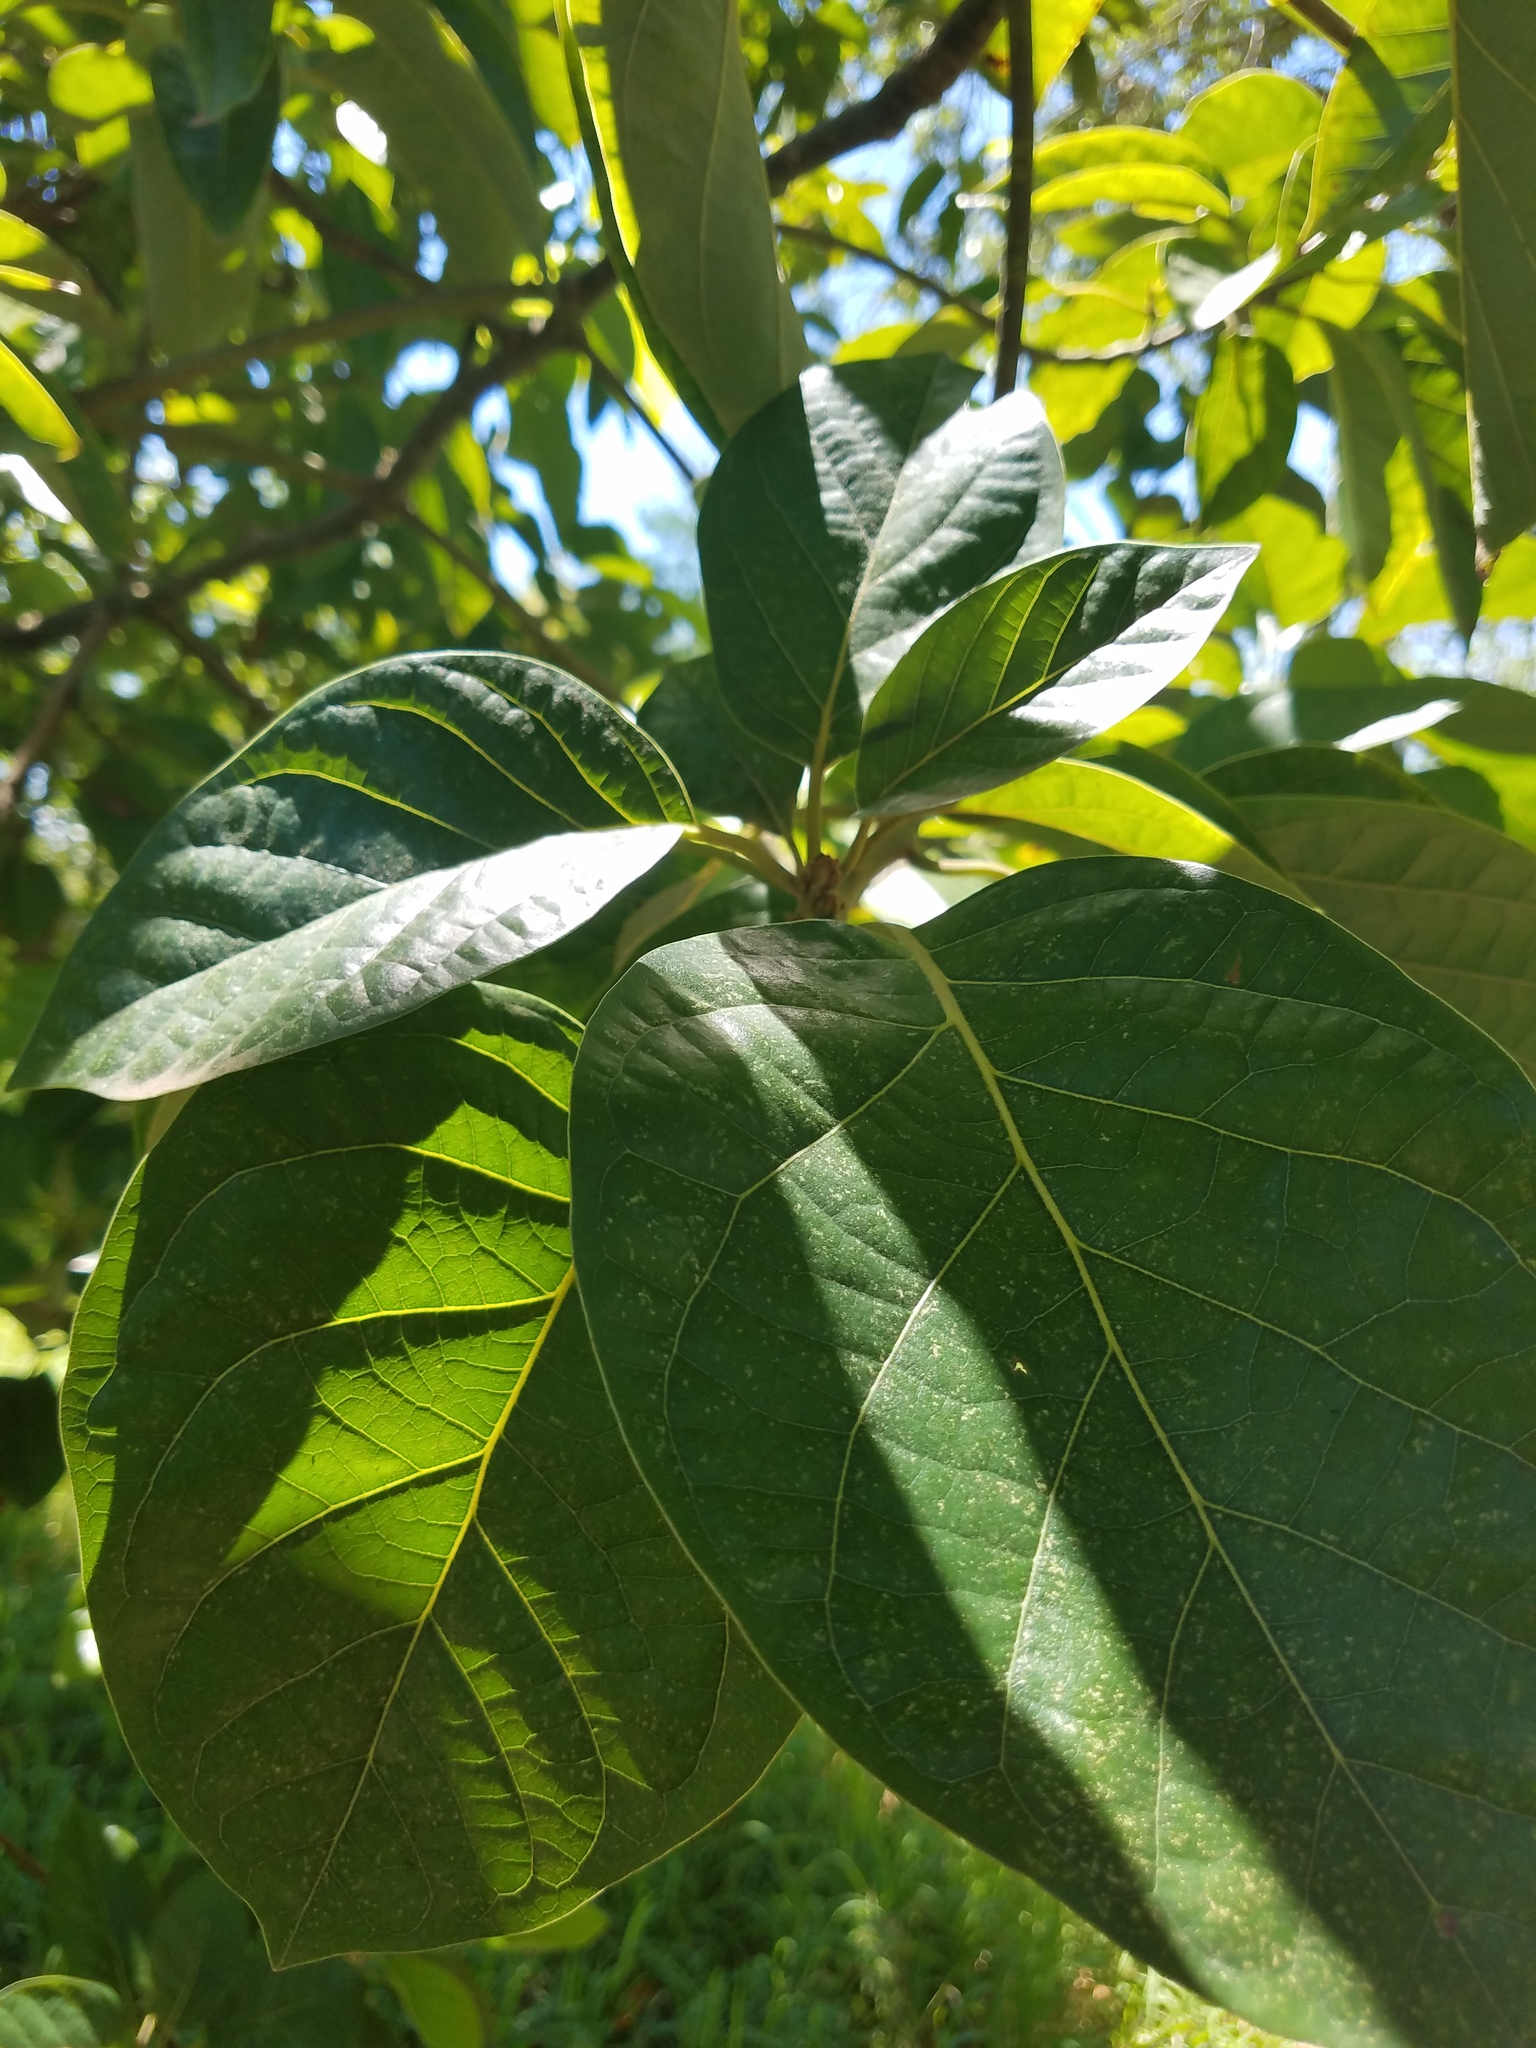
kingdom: Plantae
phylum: Tracheophyta
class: Magnoliopsida
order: Laurales
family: Lauraceae
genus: Persea
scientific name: Persea americana
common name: Avocado
